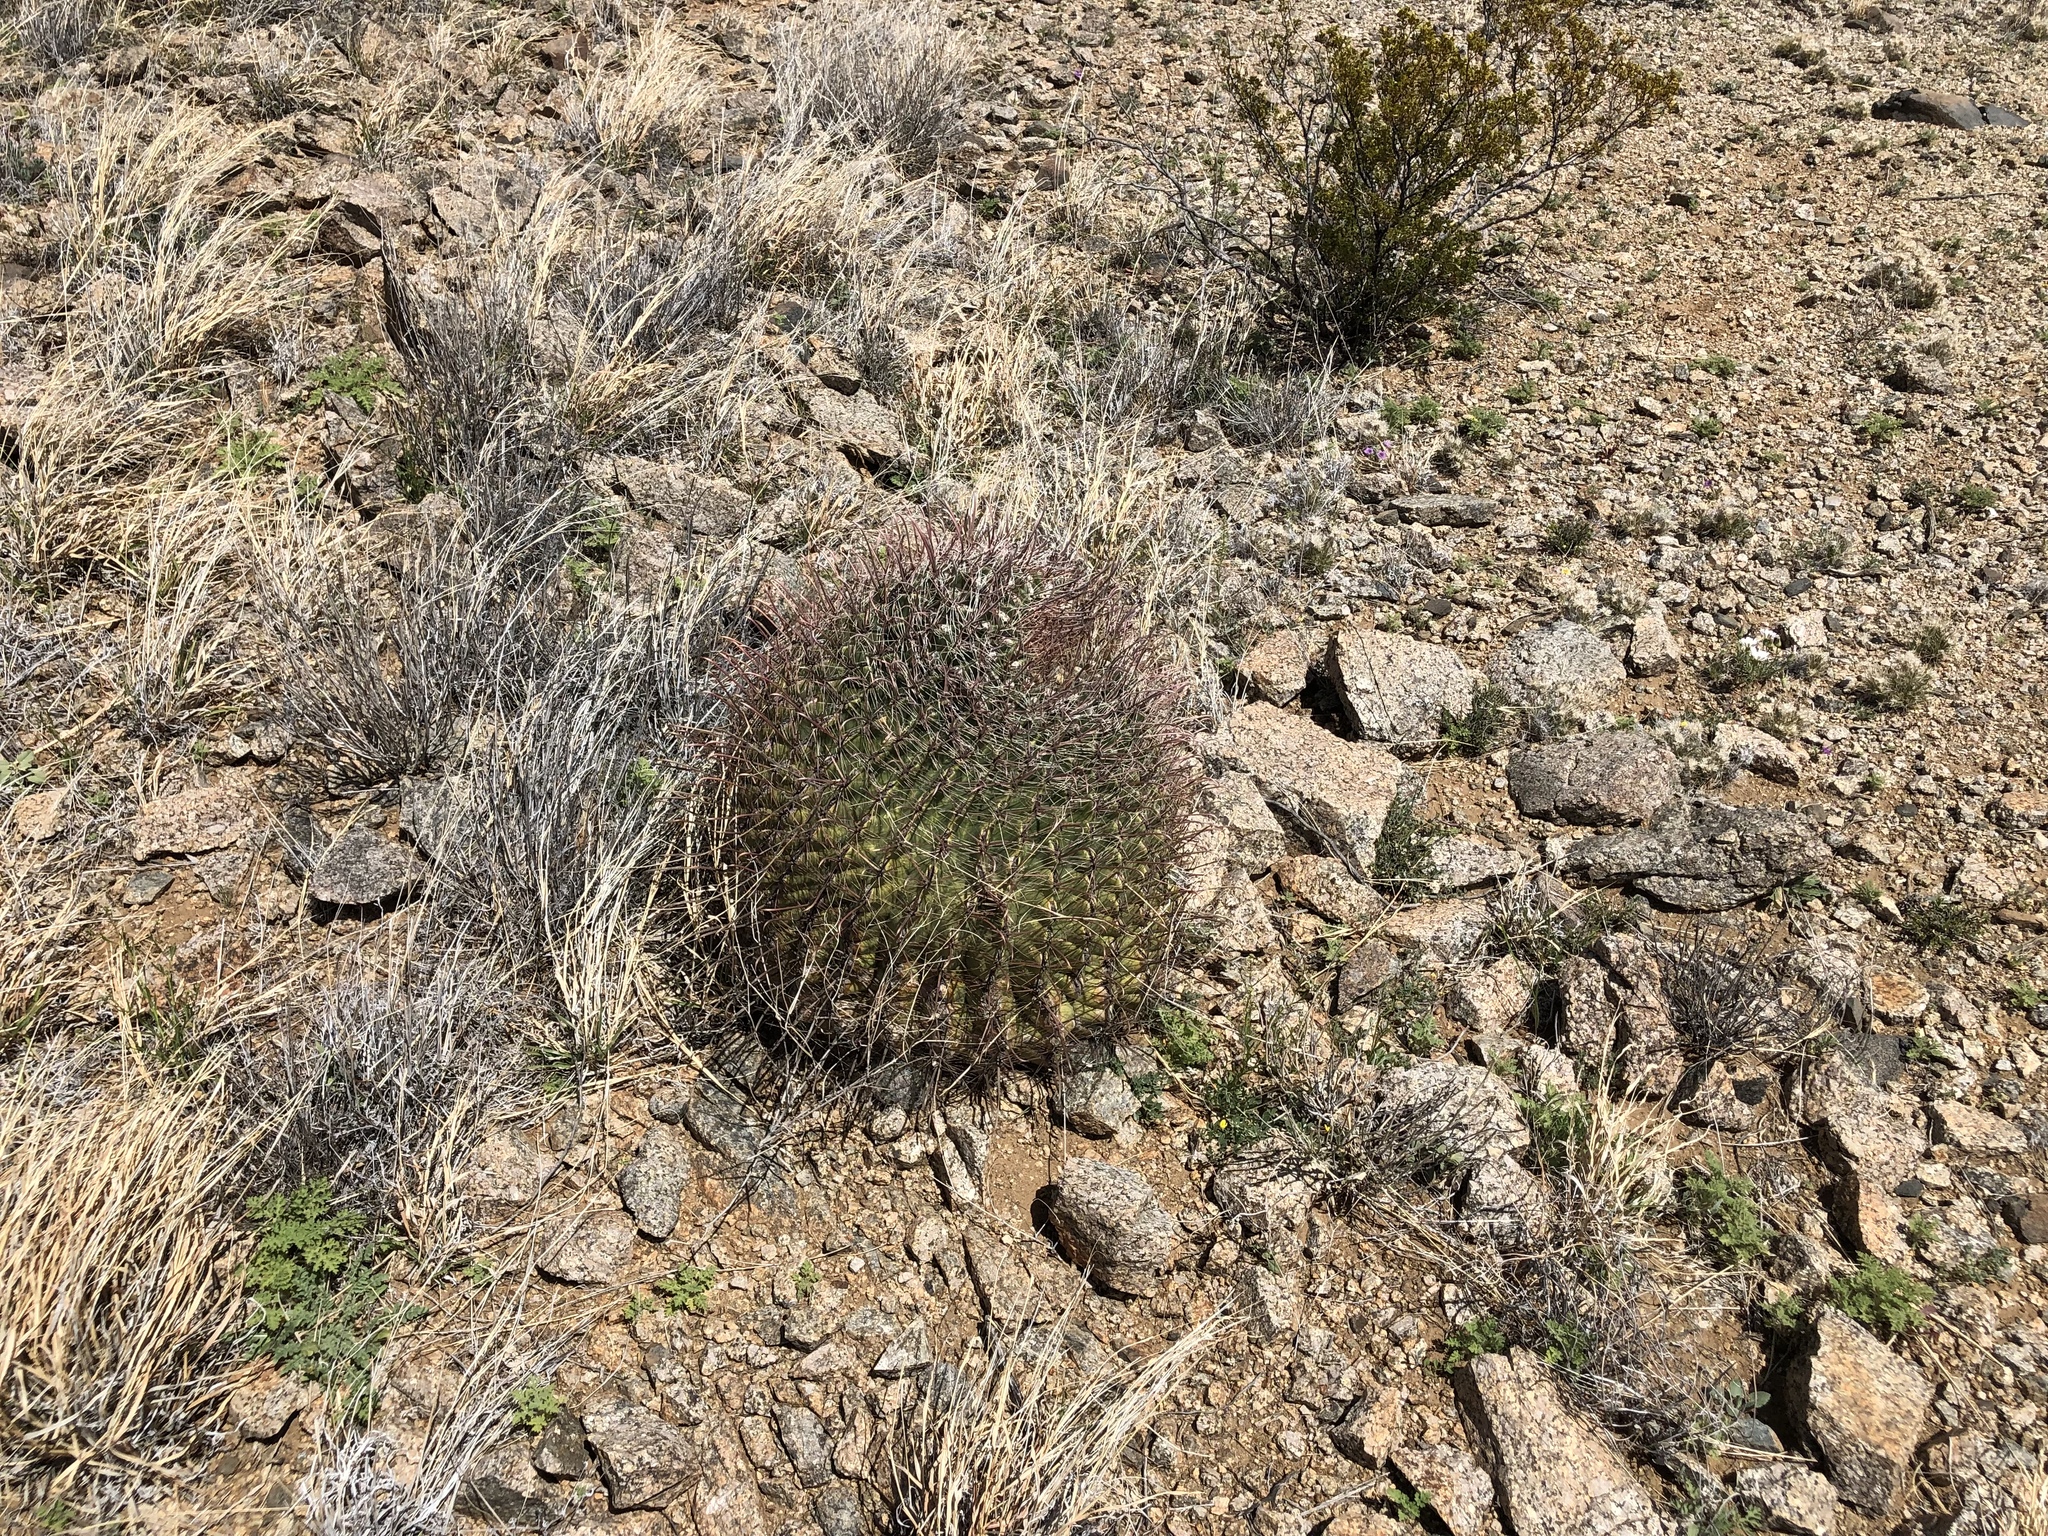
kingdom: Plantae
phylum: Tracheophyta
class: Magnoliopsida
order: Caryophyllales
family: Cactaceae
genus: Ferocactus
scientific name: Ferocactus wislizeni
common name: Candy barrel cactus
